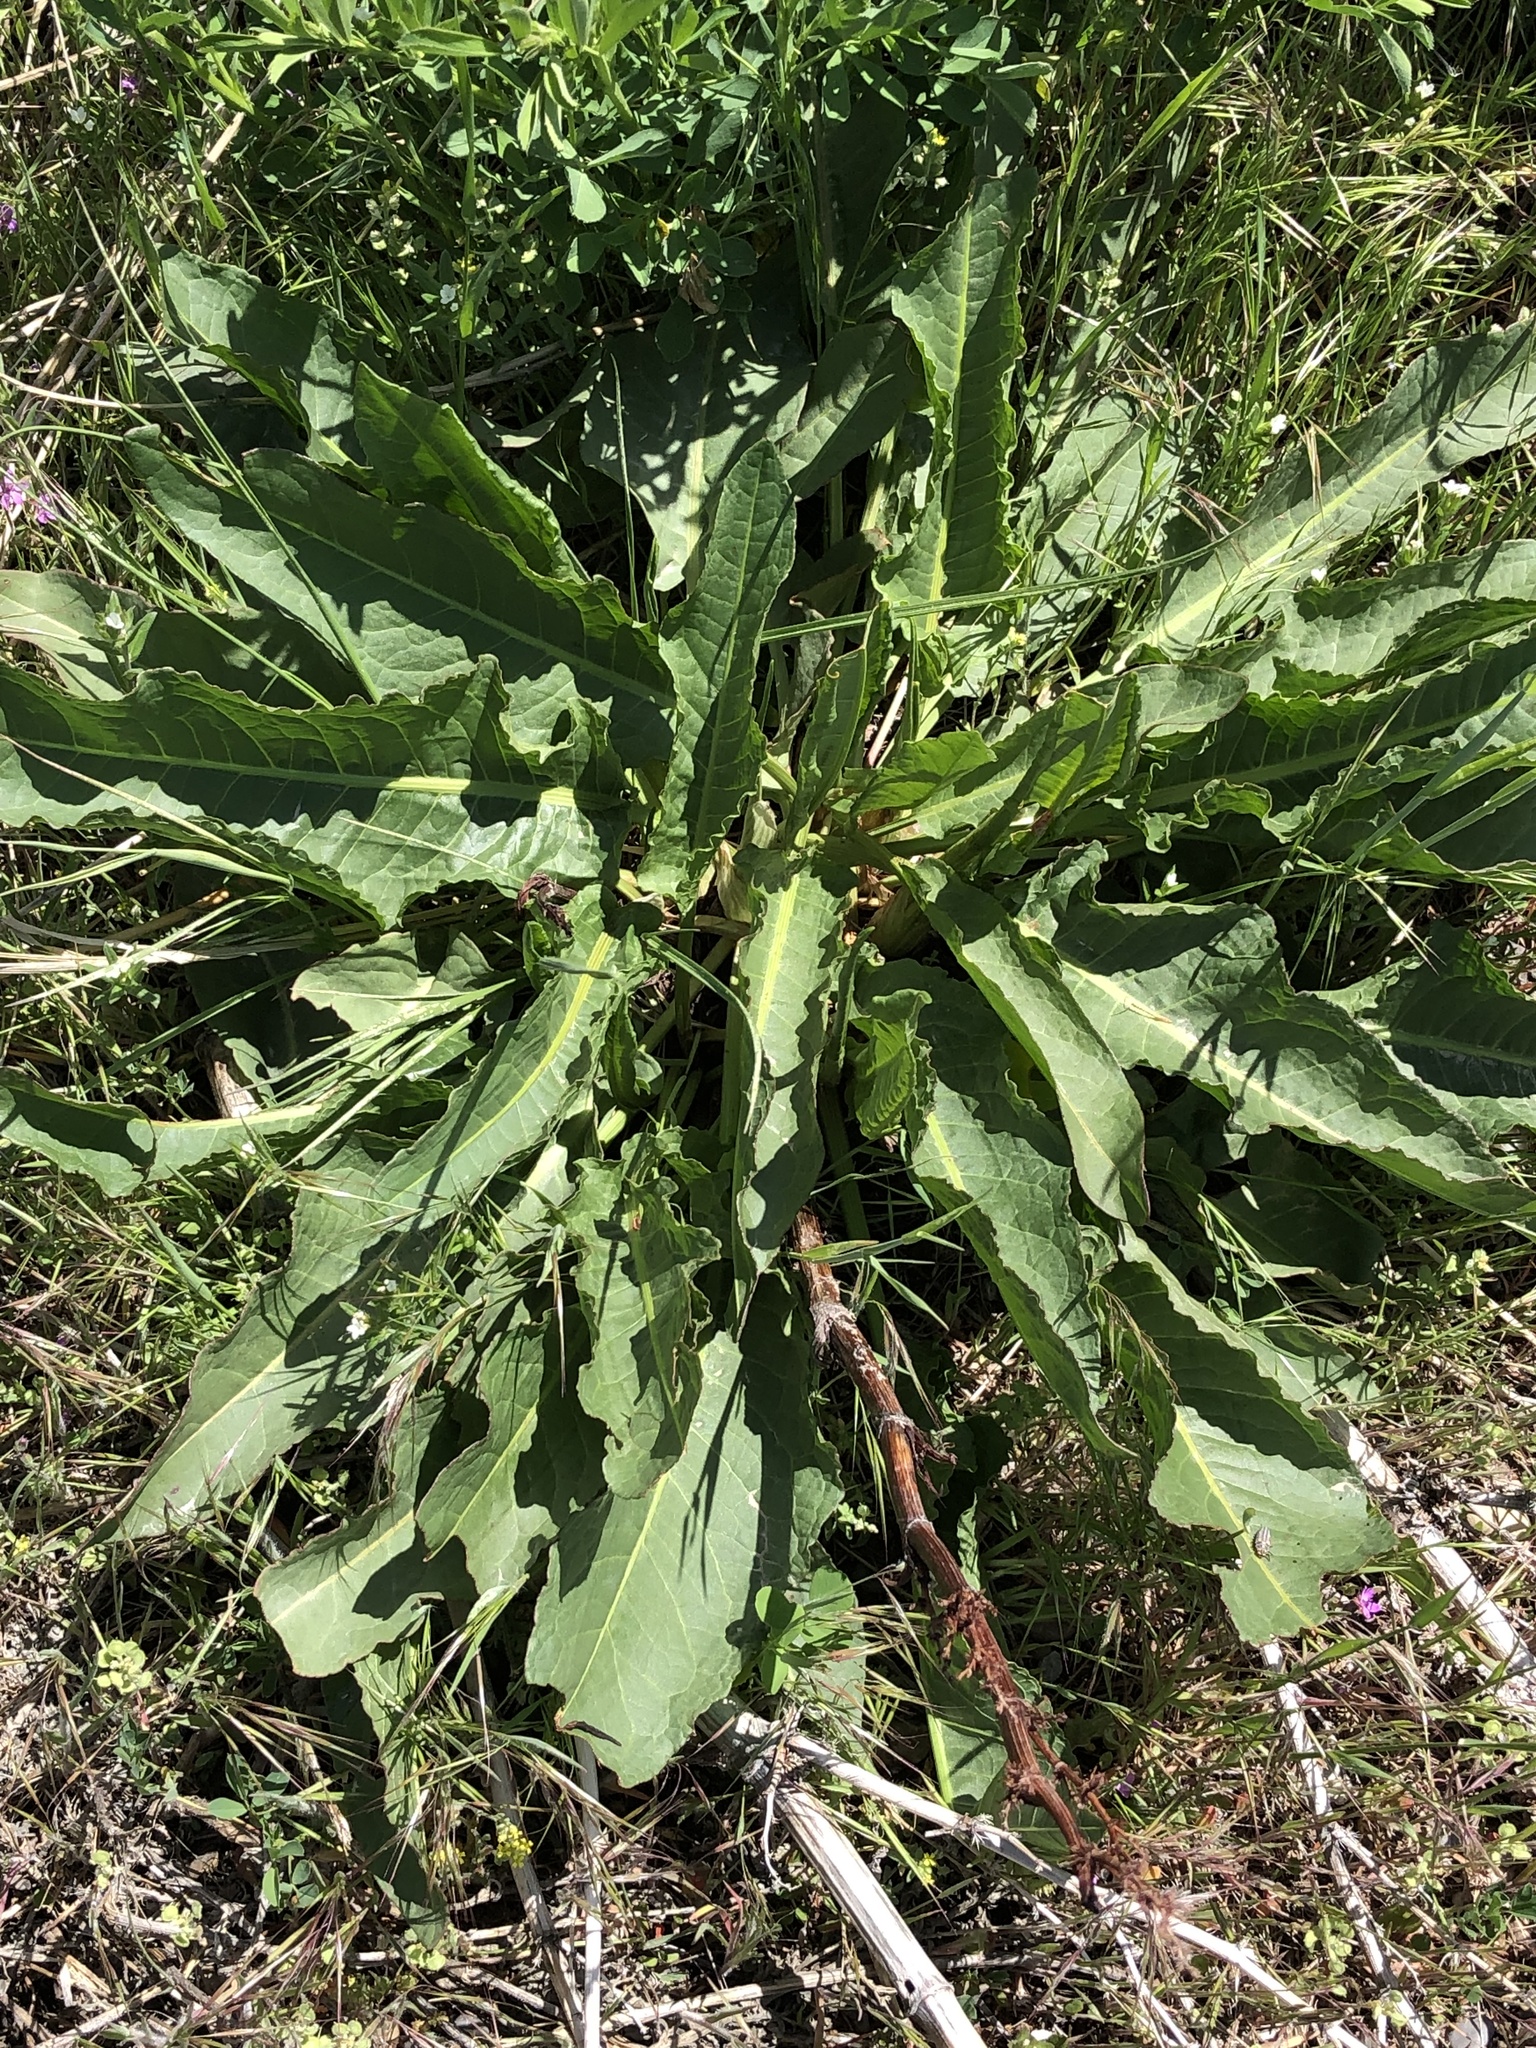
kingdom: Plantae
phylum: Tracheophyta
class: Magnoliopsida
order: Caryophyllales
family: Polygonaceae
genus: Rumex
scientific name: Rumex crispus
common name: Curled dock
